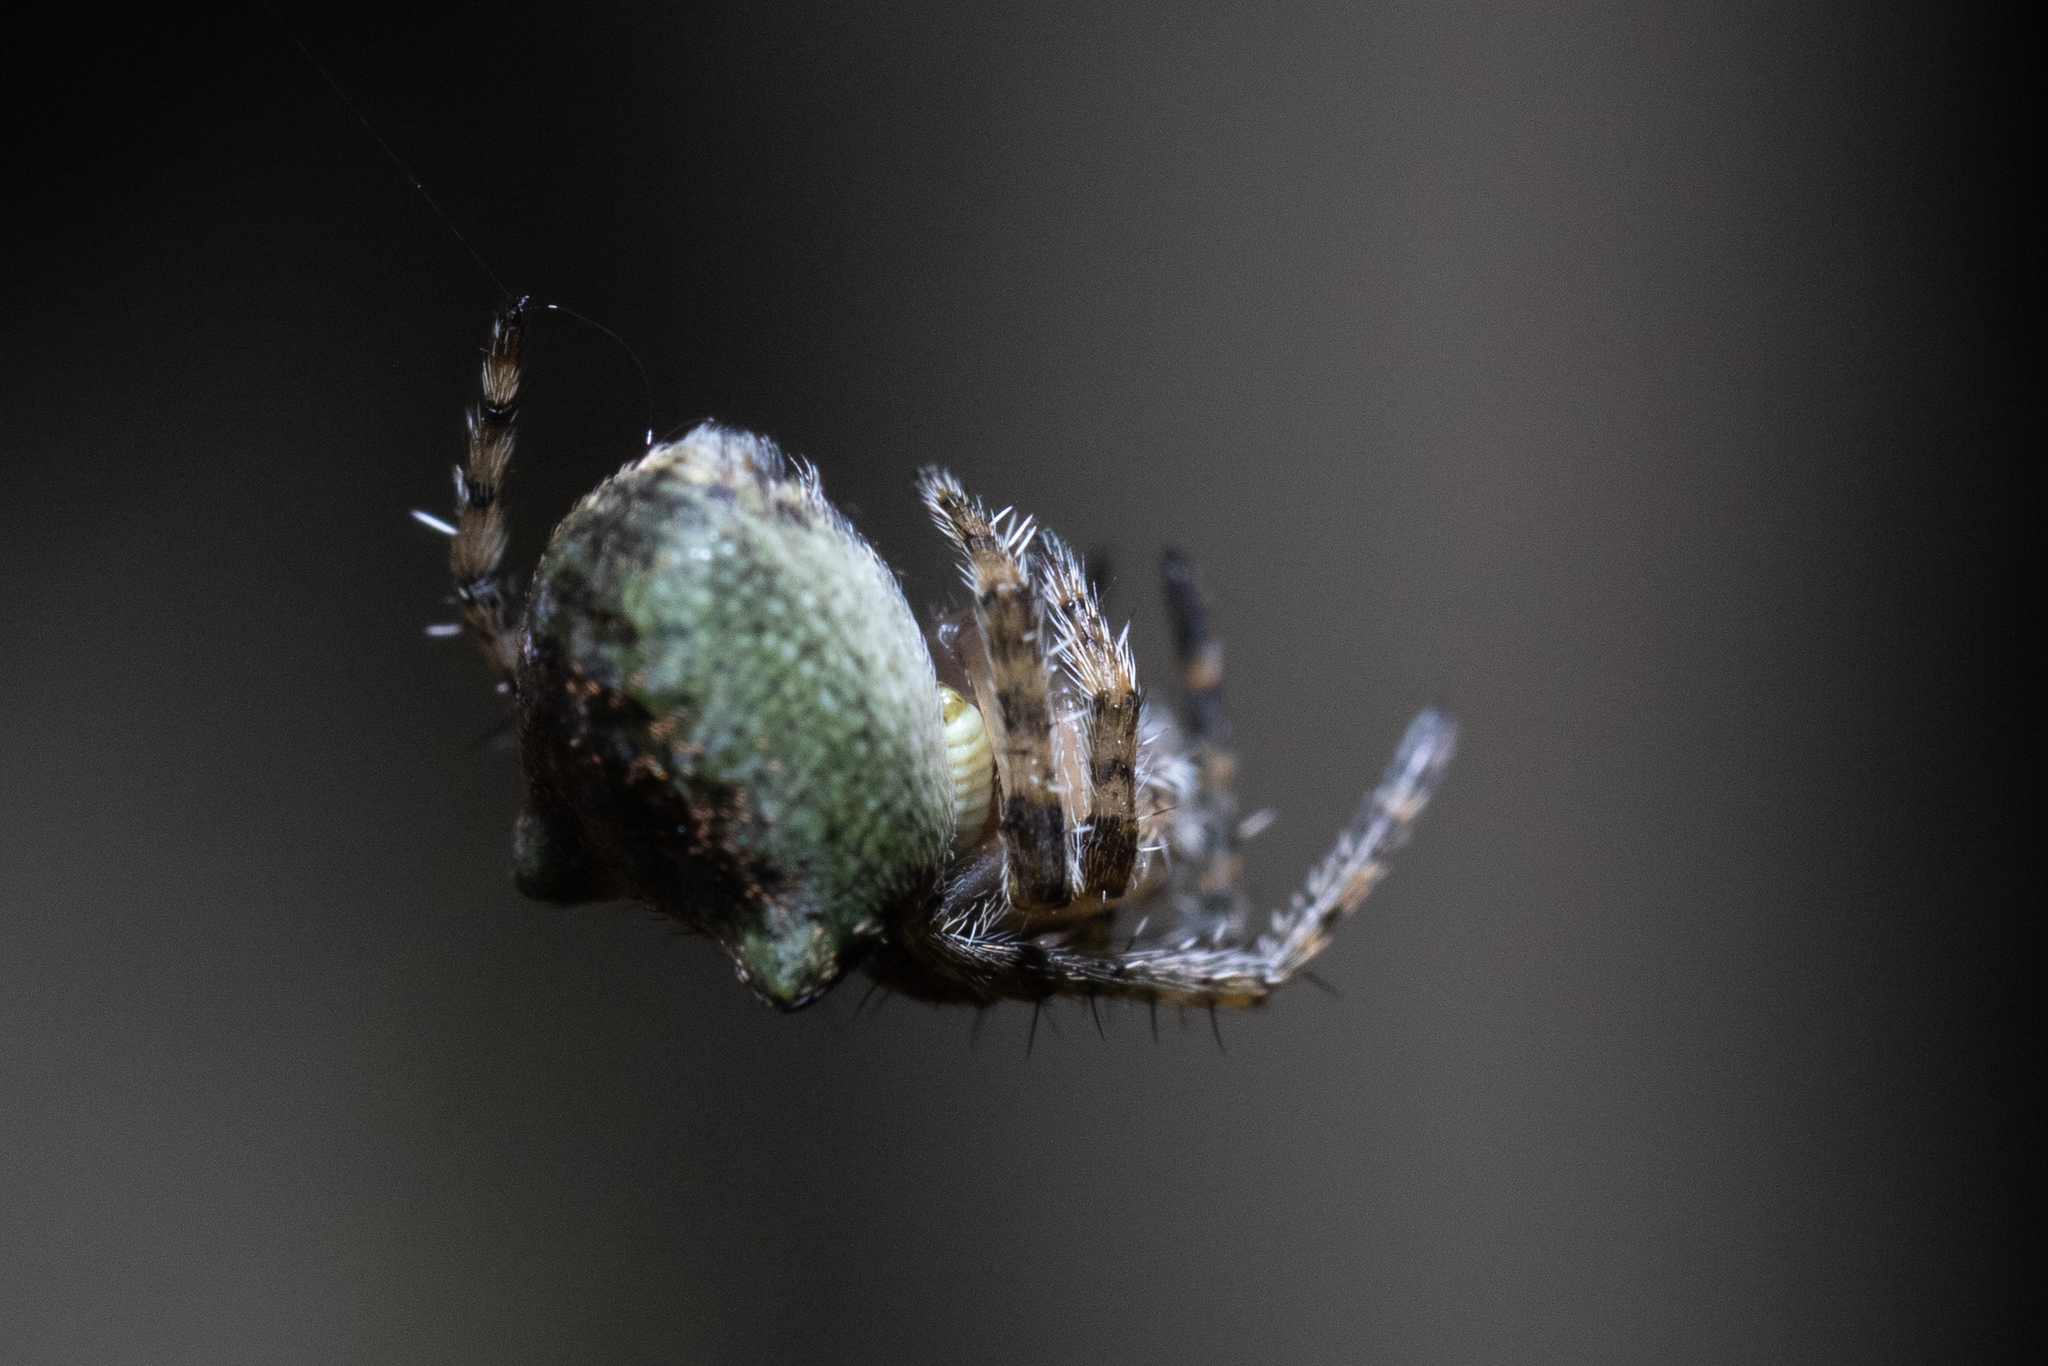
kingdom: Animalia
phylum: Arthropoda
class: Arachnida
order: Araneae
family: Araneidae
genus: Gibbaranea
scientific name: Gibbaranea gibbosa
